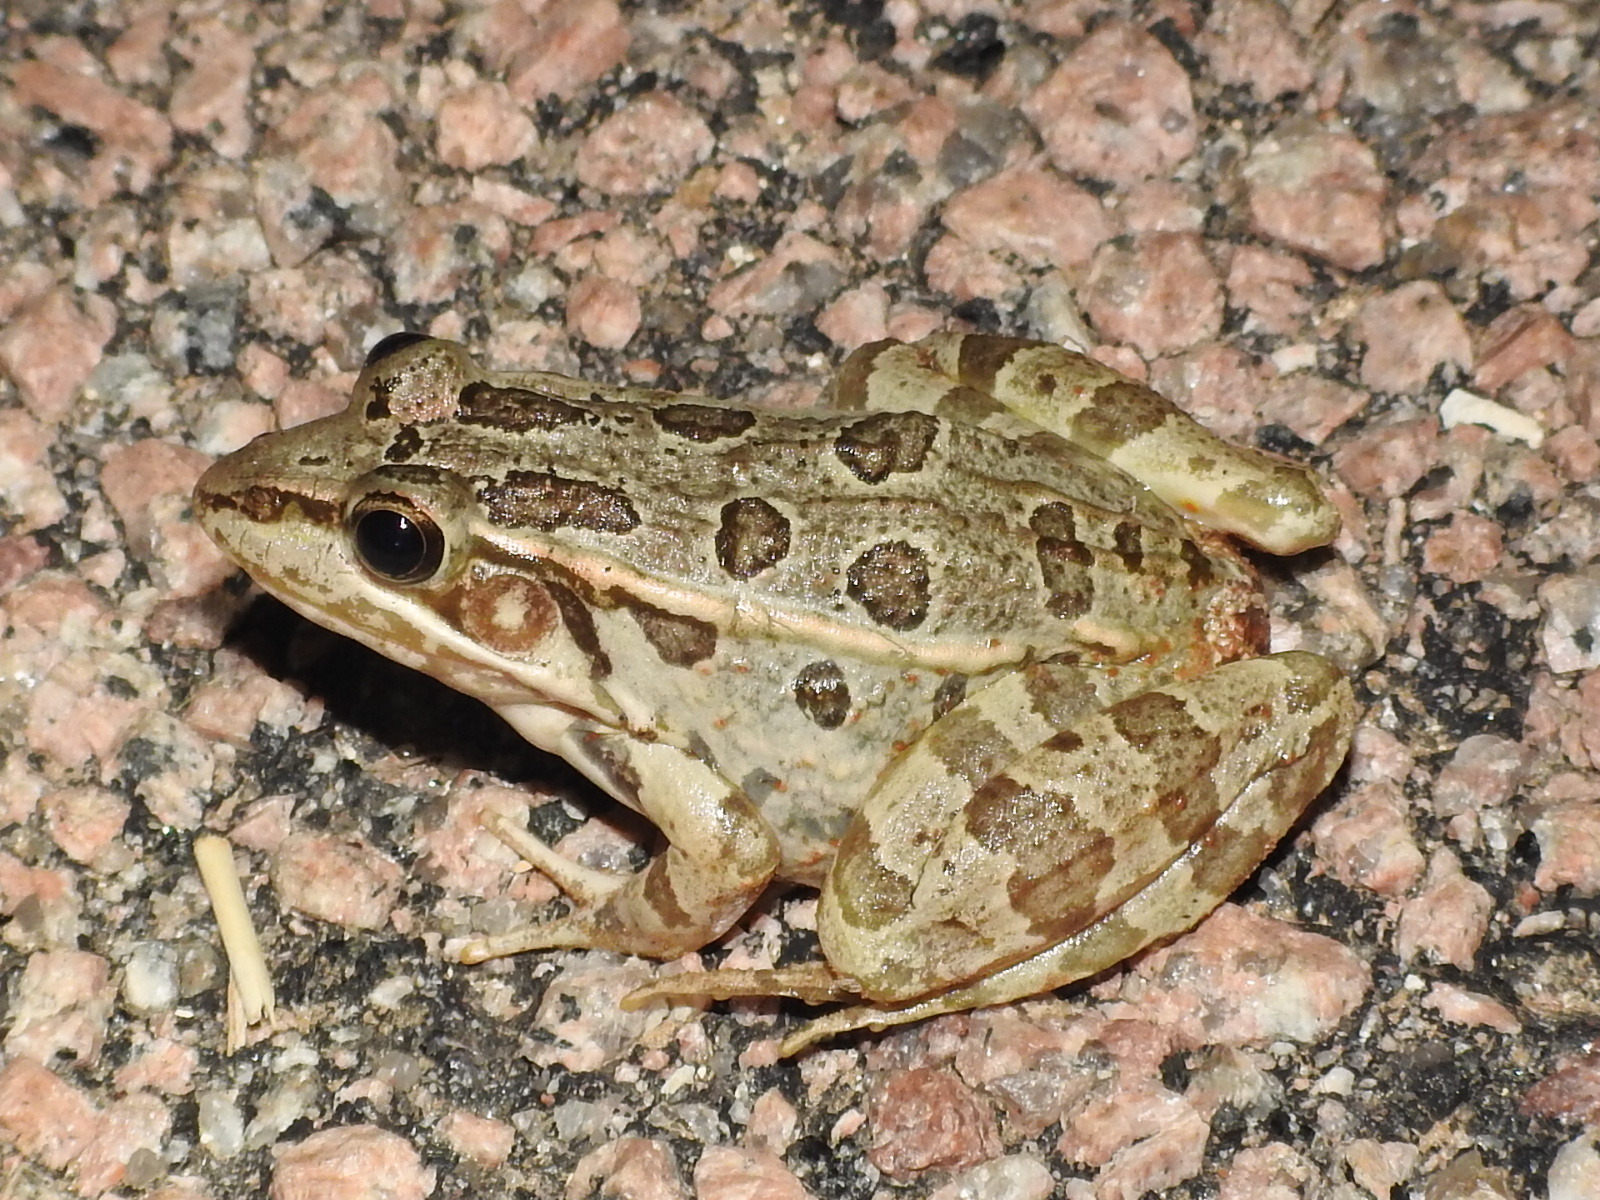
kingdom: Animalia
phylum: Chordata
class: Amphibia
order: Anura
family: Ranidae
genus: Lithobates
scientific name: Lithobates berlandieri
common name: Rio grande leopard frog
